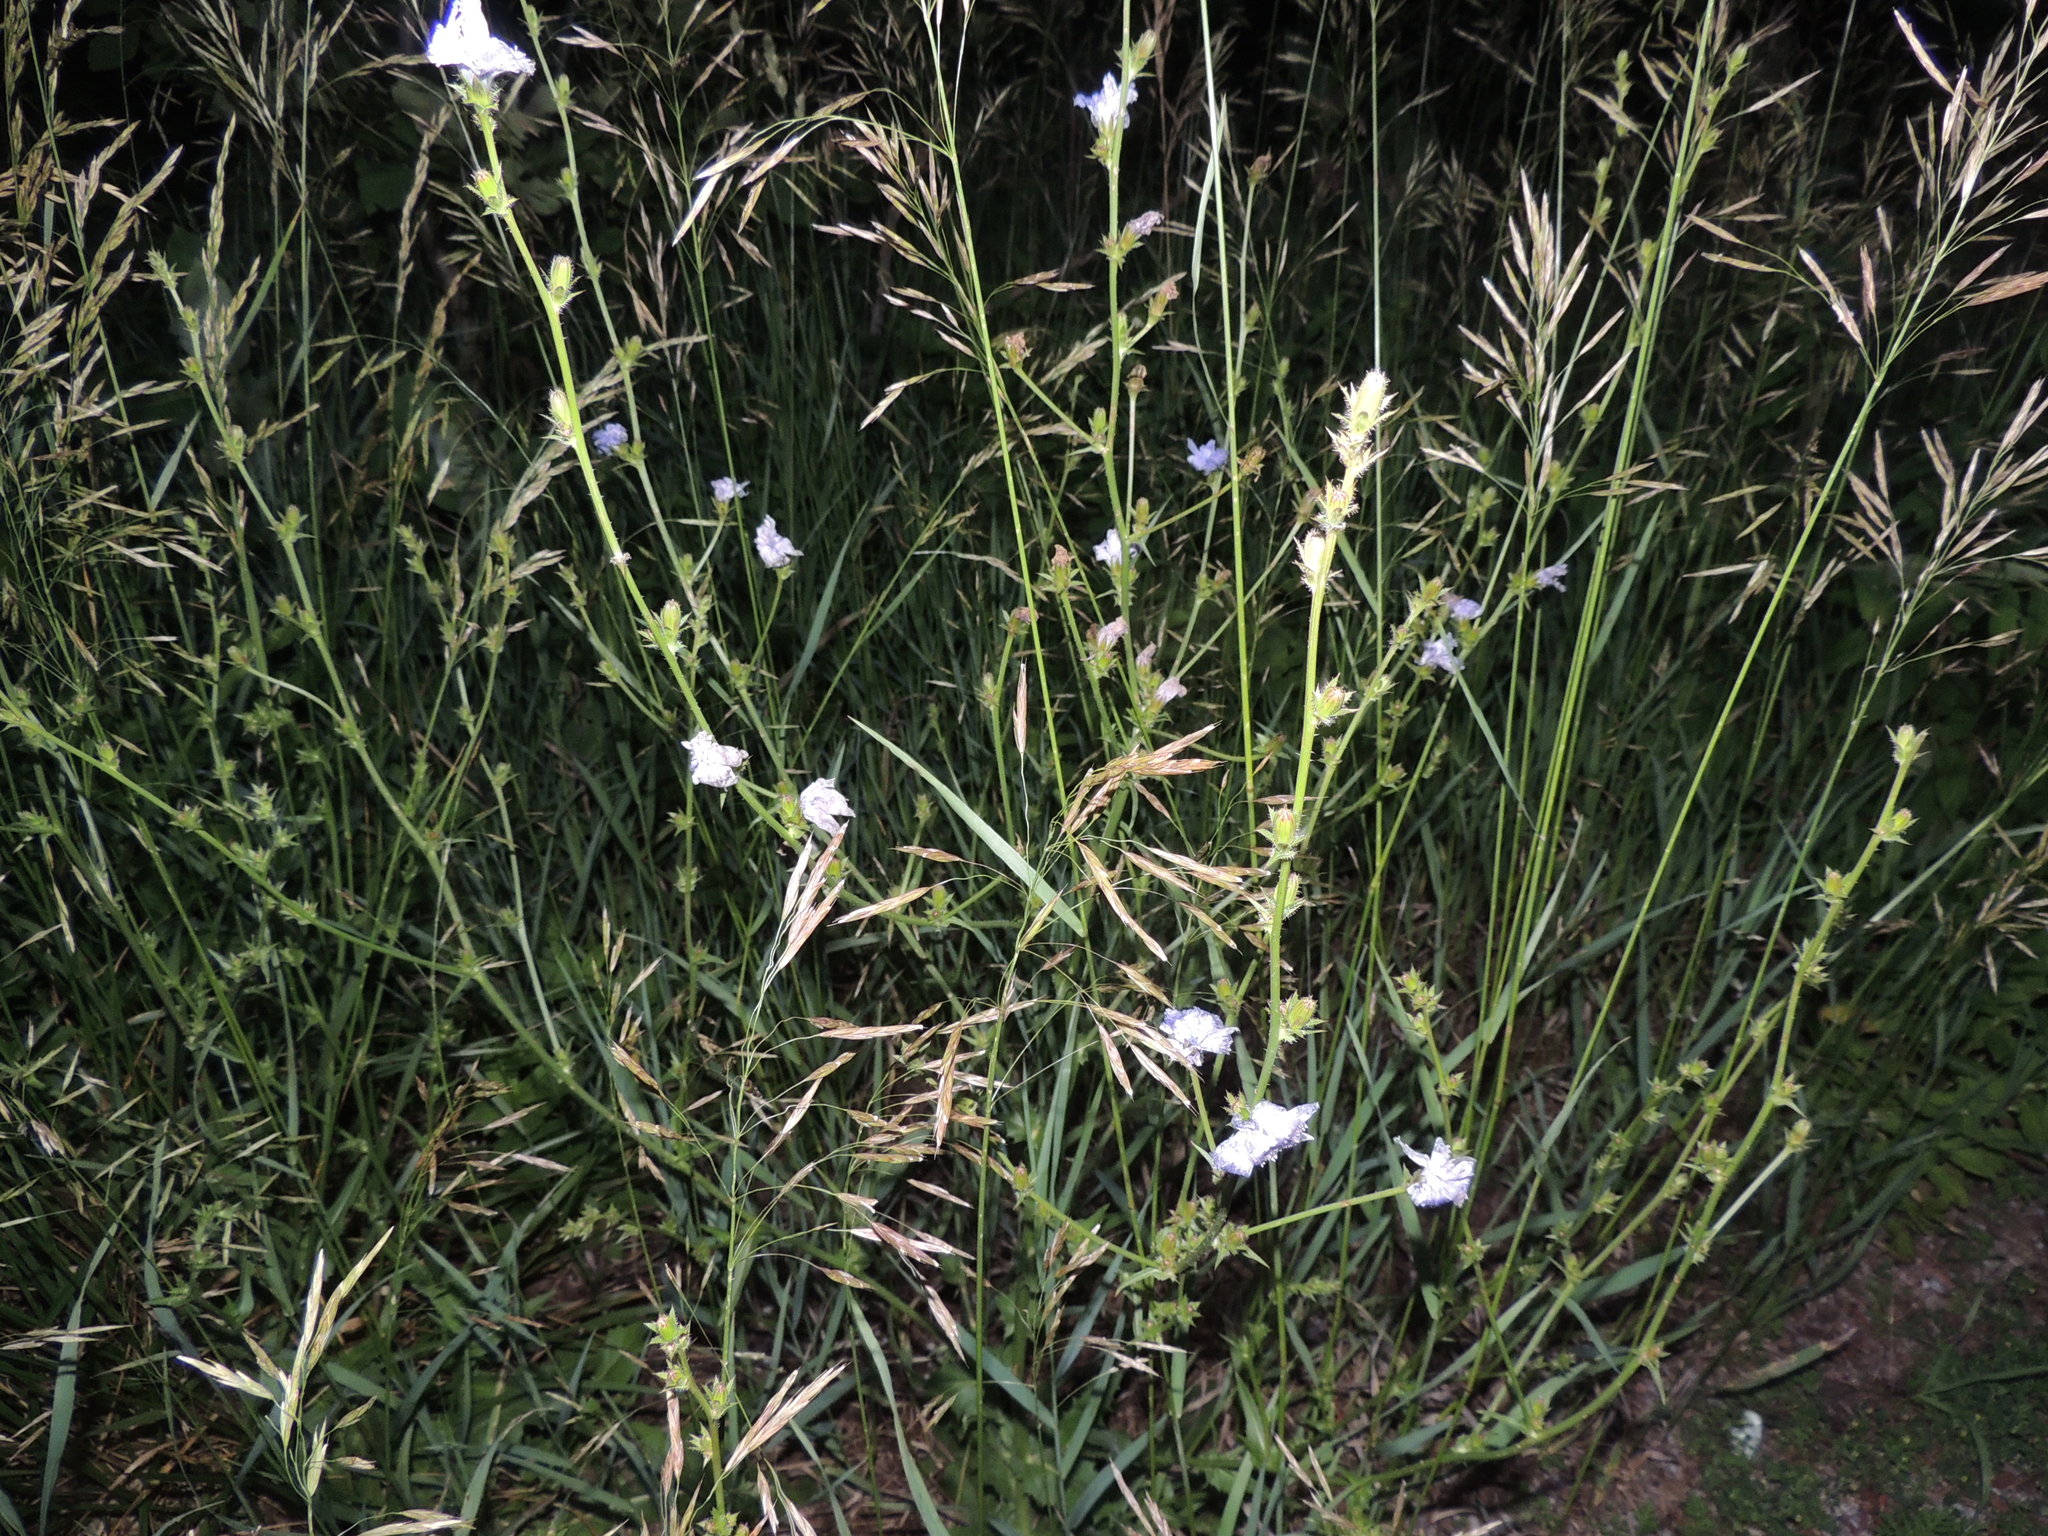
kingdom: Plantae
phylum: Tracheophyta
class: Magnoliopsida
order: Asterales
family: Asteraceae
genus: Cichorium
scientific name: Cichorium intybus
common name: Chicory
